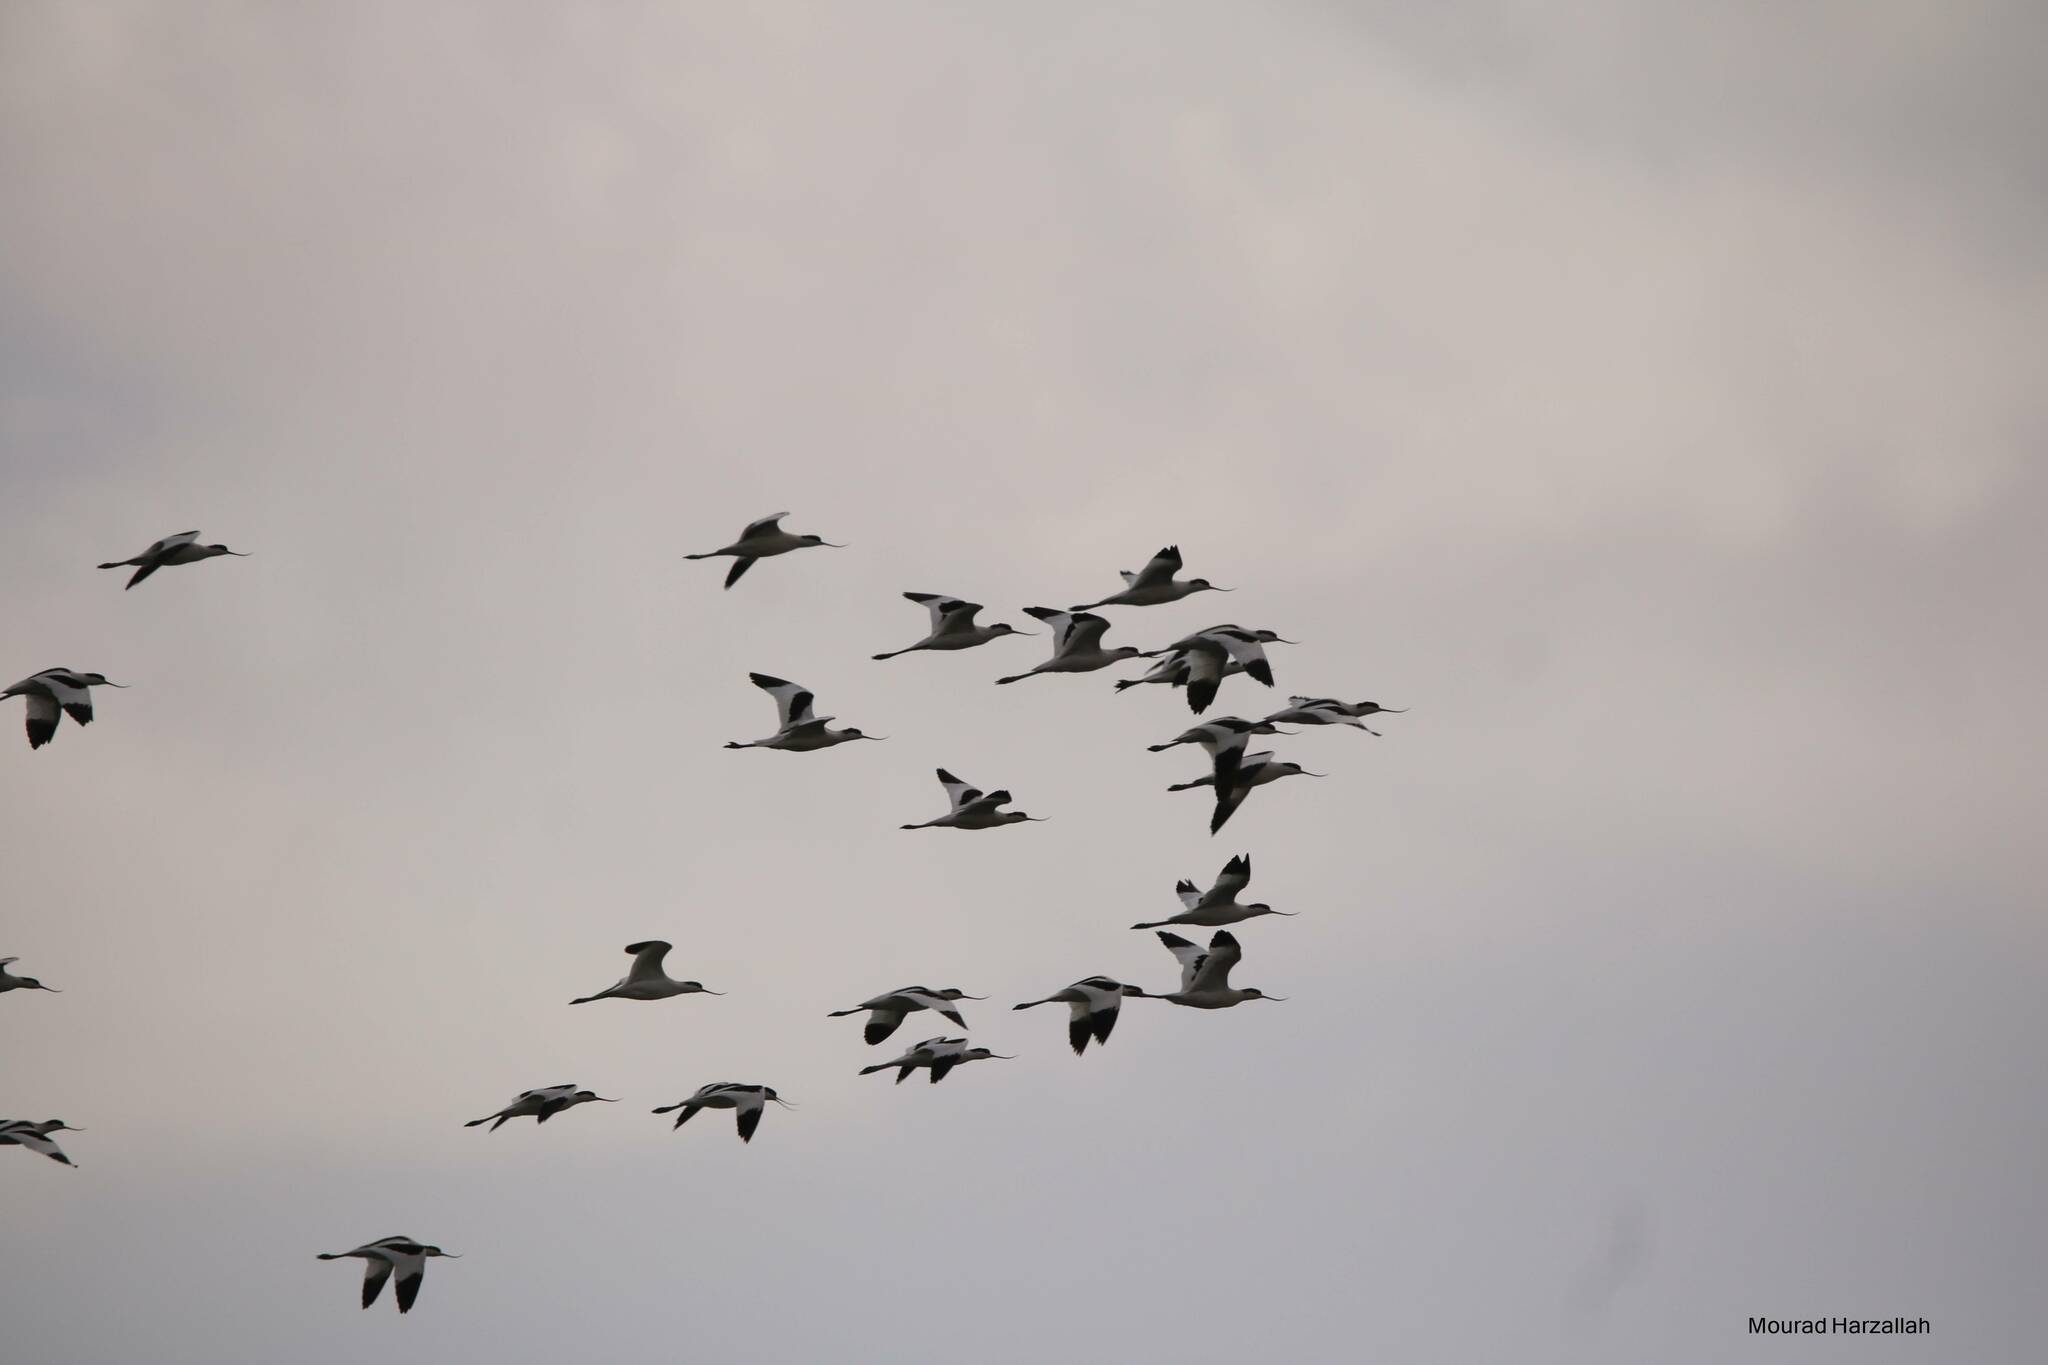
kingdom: Animalia
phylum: Chordata
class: Aves
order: Charadriiformes
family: Recurvirostridae
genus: Recurvirostra
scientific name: Recurvirostra avosetta
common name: Pied avocet
